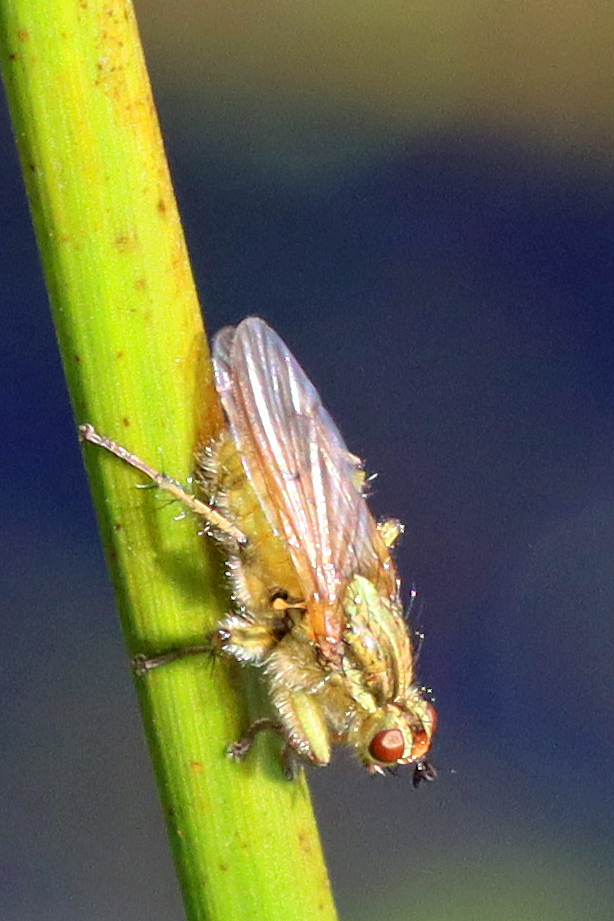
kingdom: Animalia
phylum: Arthropoda
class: Insecta
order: Diptera
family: Scathophagidae
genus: Scathophaga
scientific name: Scathophaga stercoraria
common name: Yellow dung fly
